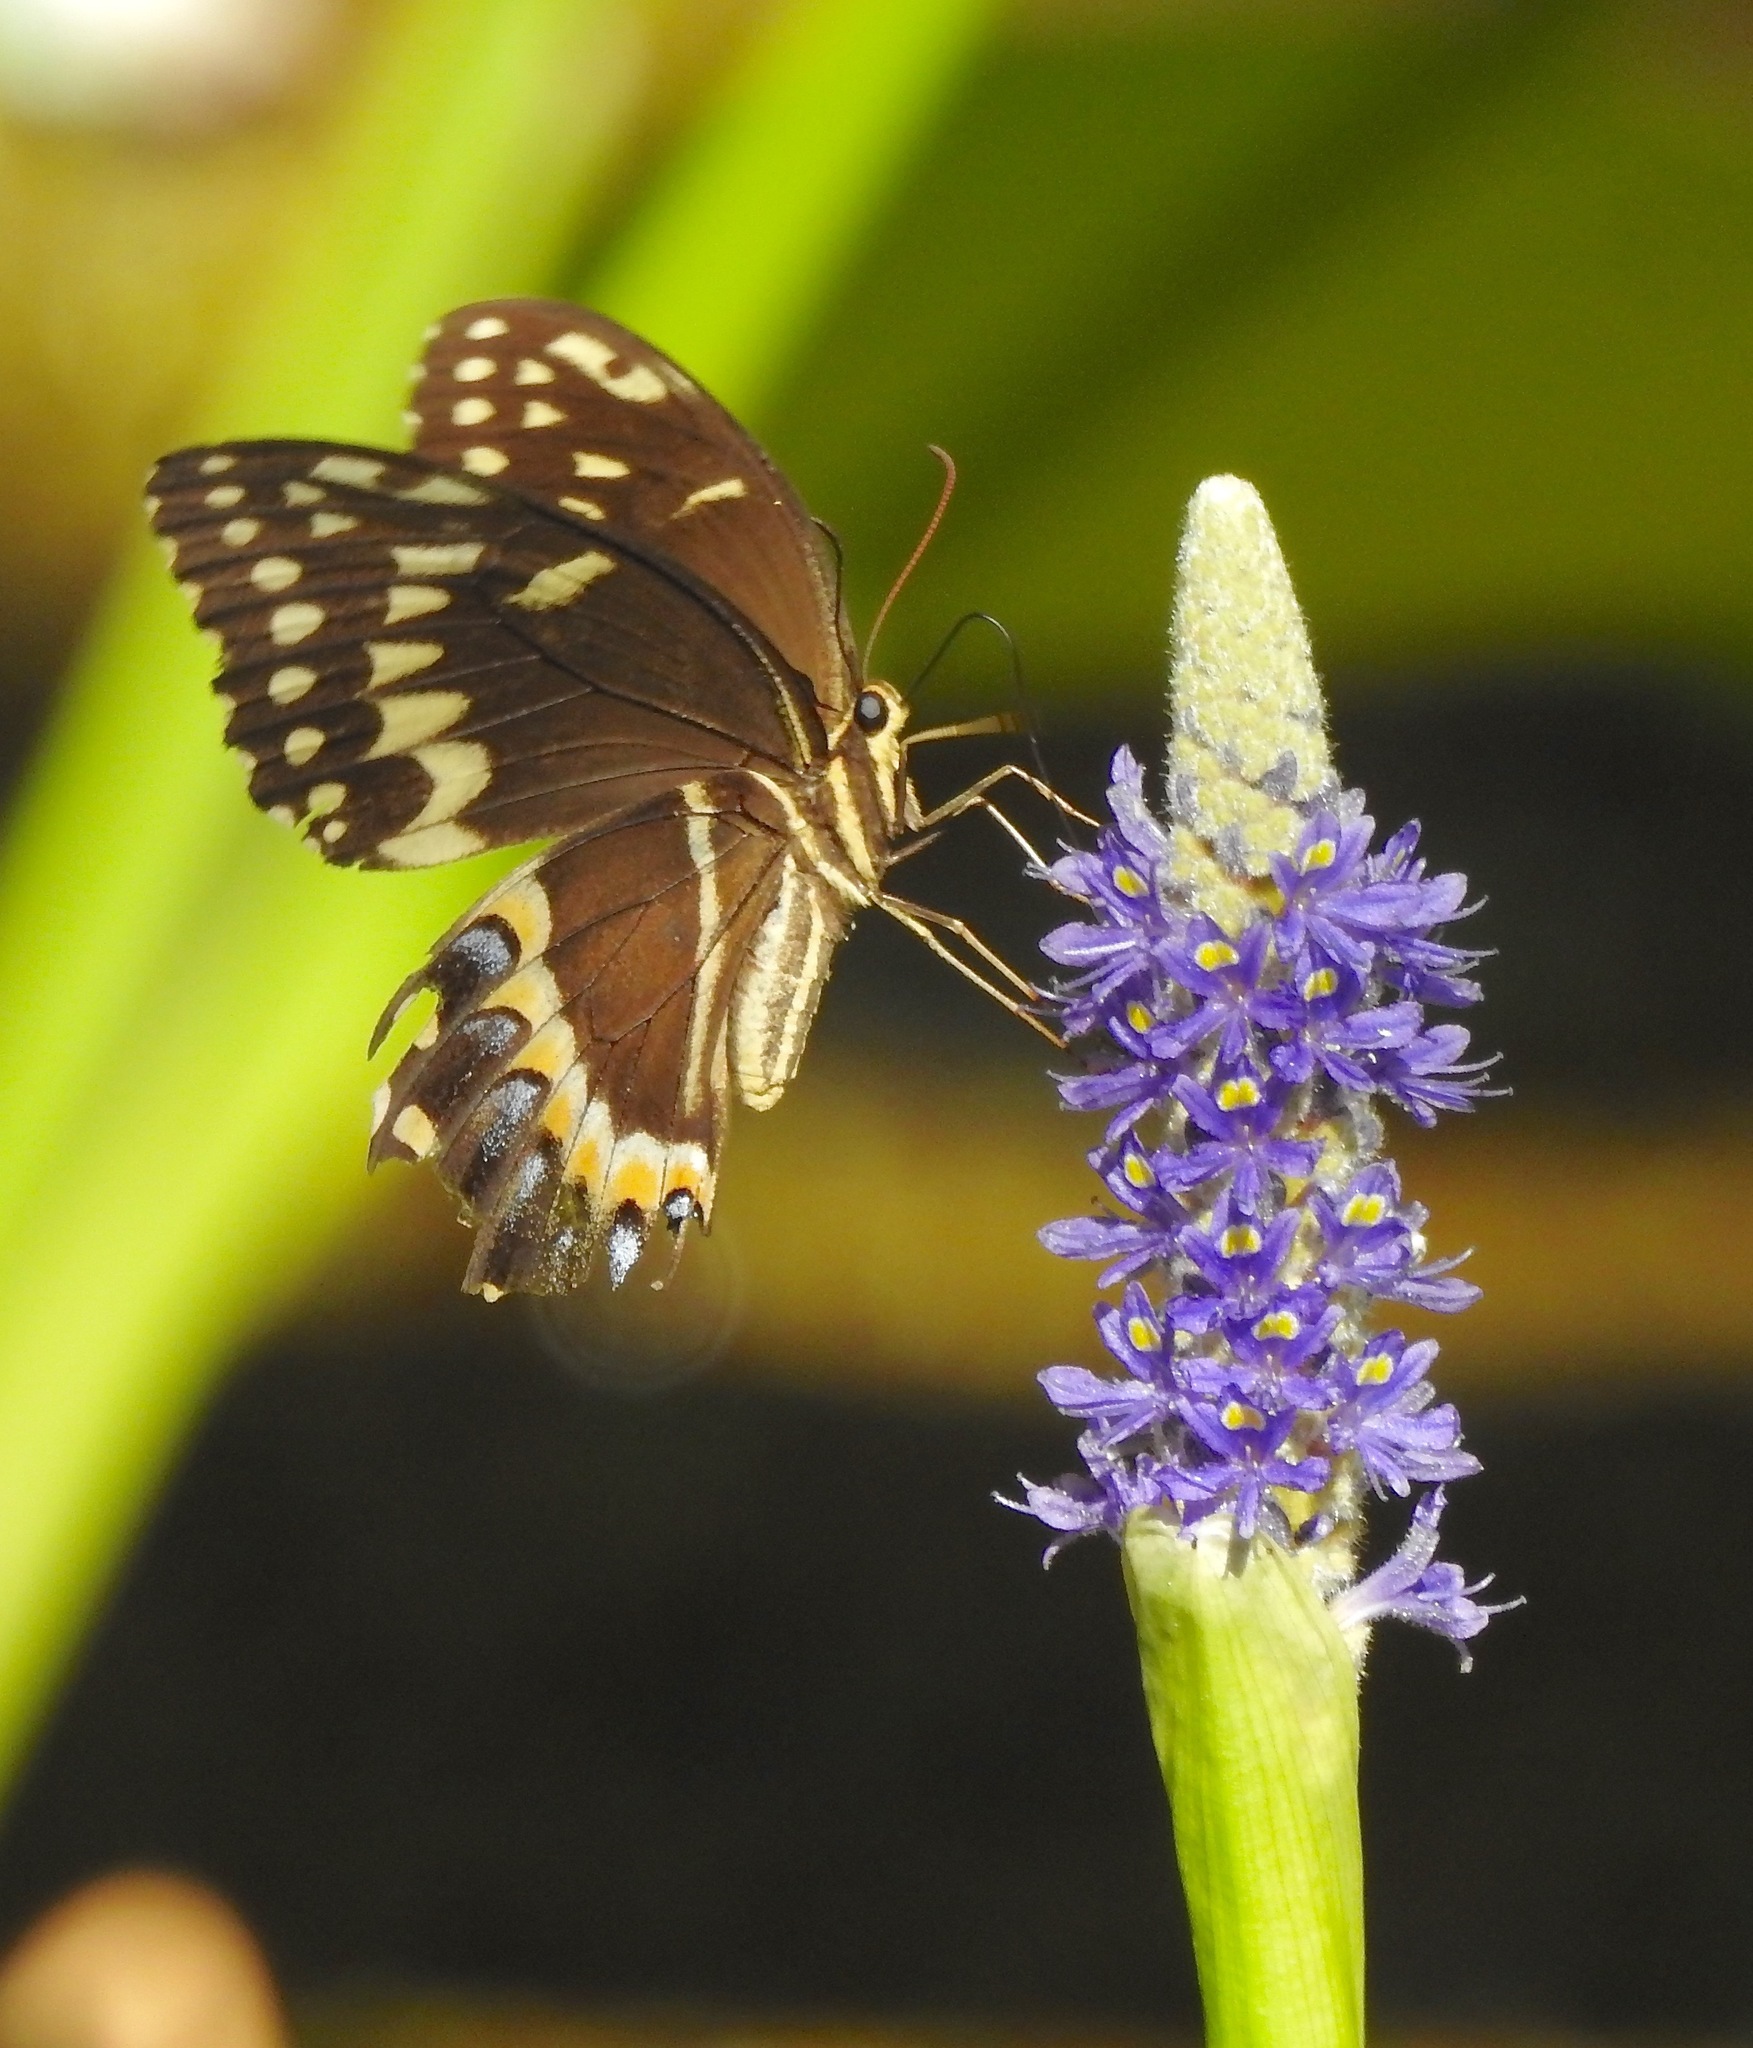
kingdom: Animalia
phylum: Arthropoda
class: Insecta
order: Lepidoptera
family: Papilionidae
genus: Papilio
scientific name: Papilio palamedes
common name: Palamedes swallowtail
